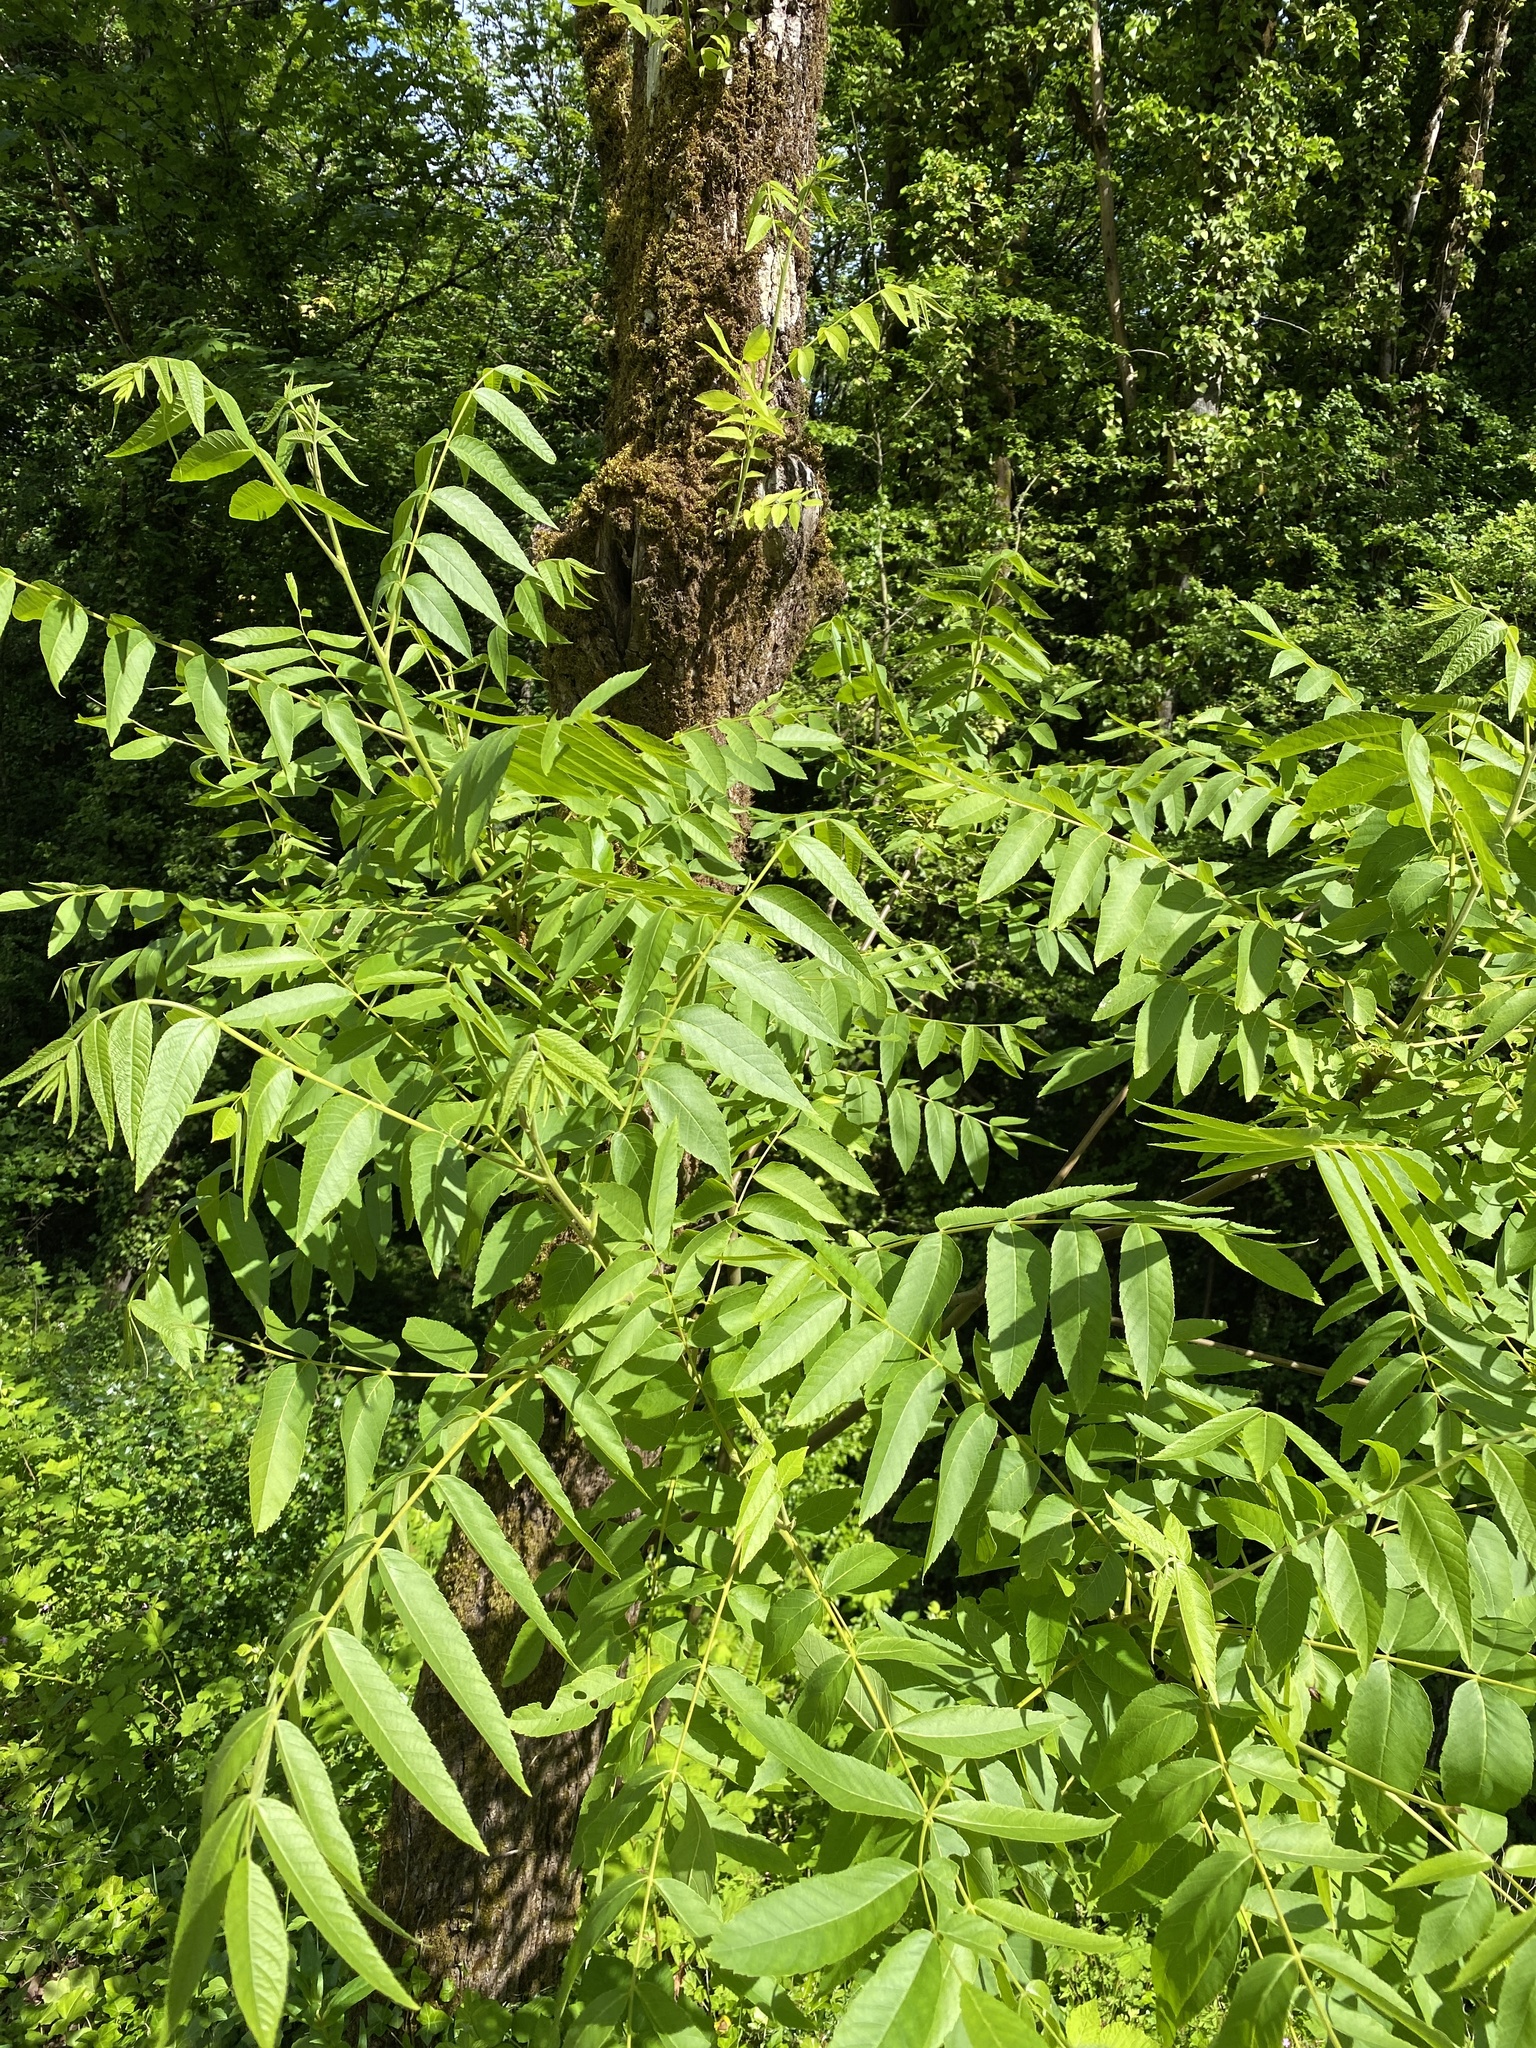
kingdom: Plantae
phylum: Tracheophyta
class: Magnoliopsida
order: Fagales
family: Juglandaceae
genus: Juglans
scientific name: Juglans nigra
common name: Black walnut
